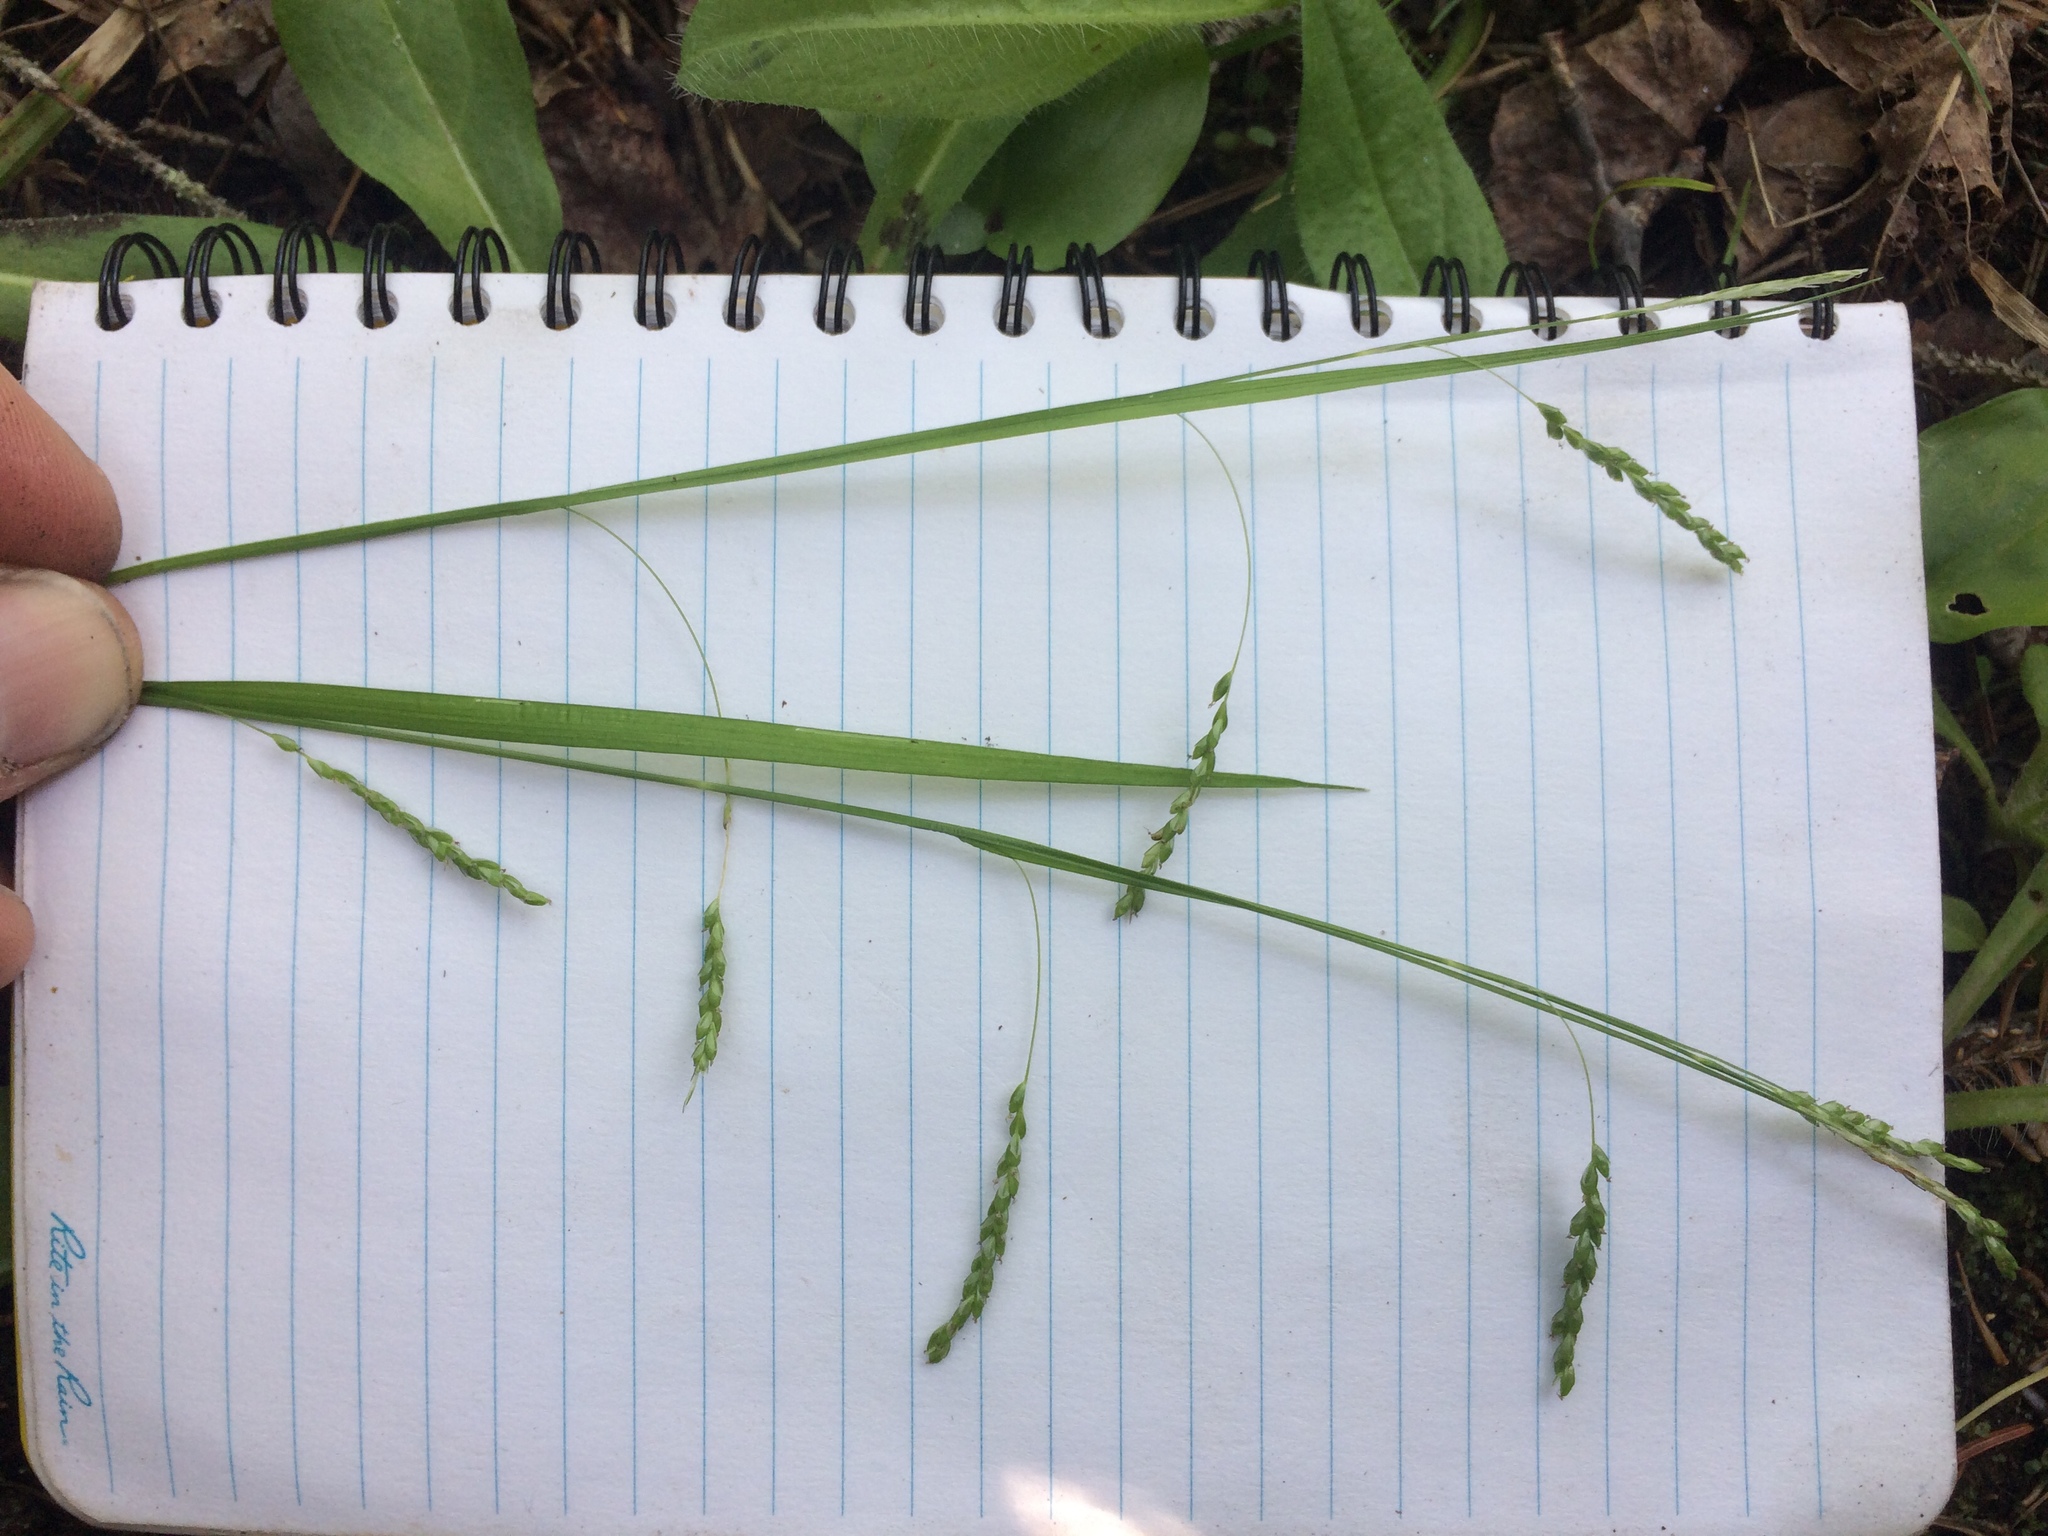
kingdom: Plantae
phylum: Tracheophyta
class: Liliopsida
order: Poales
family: Cyperaceae
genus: Carex
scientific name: Carex gracillima
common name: Graceful sedge
